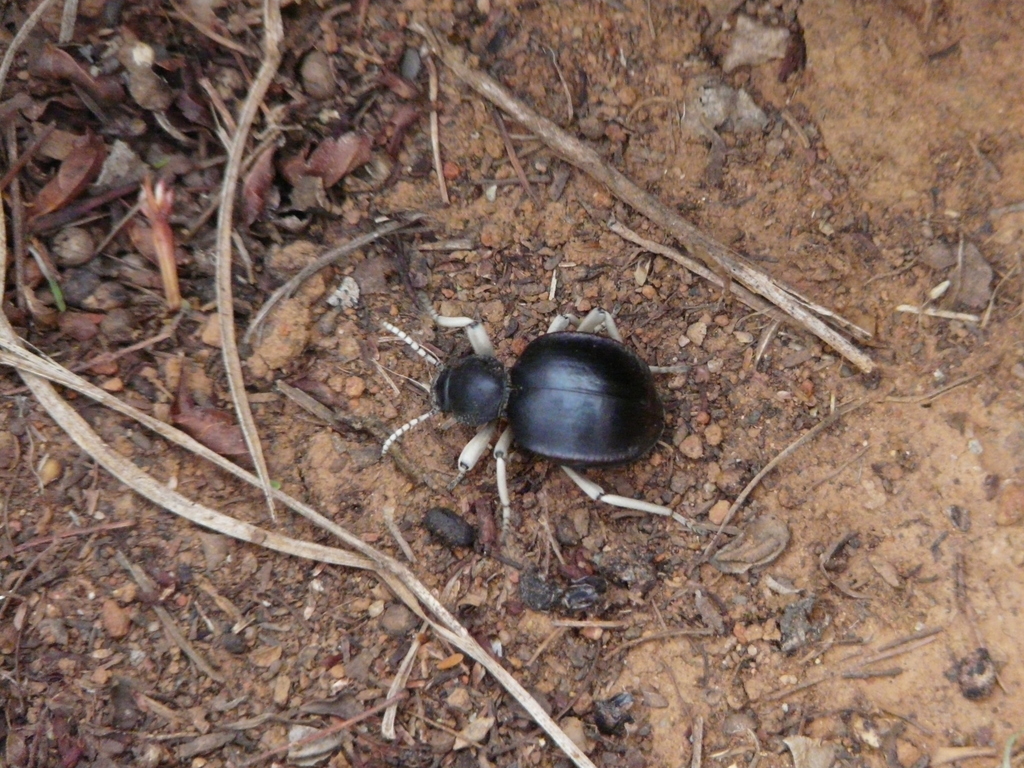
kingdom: Animalia
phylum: Arthropoda
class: Insecta
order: Coleoptera
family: Tenebrionidae
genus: Dichtha
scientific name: Dichtha cubica
